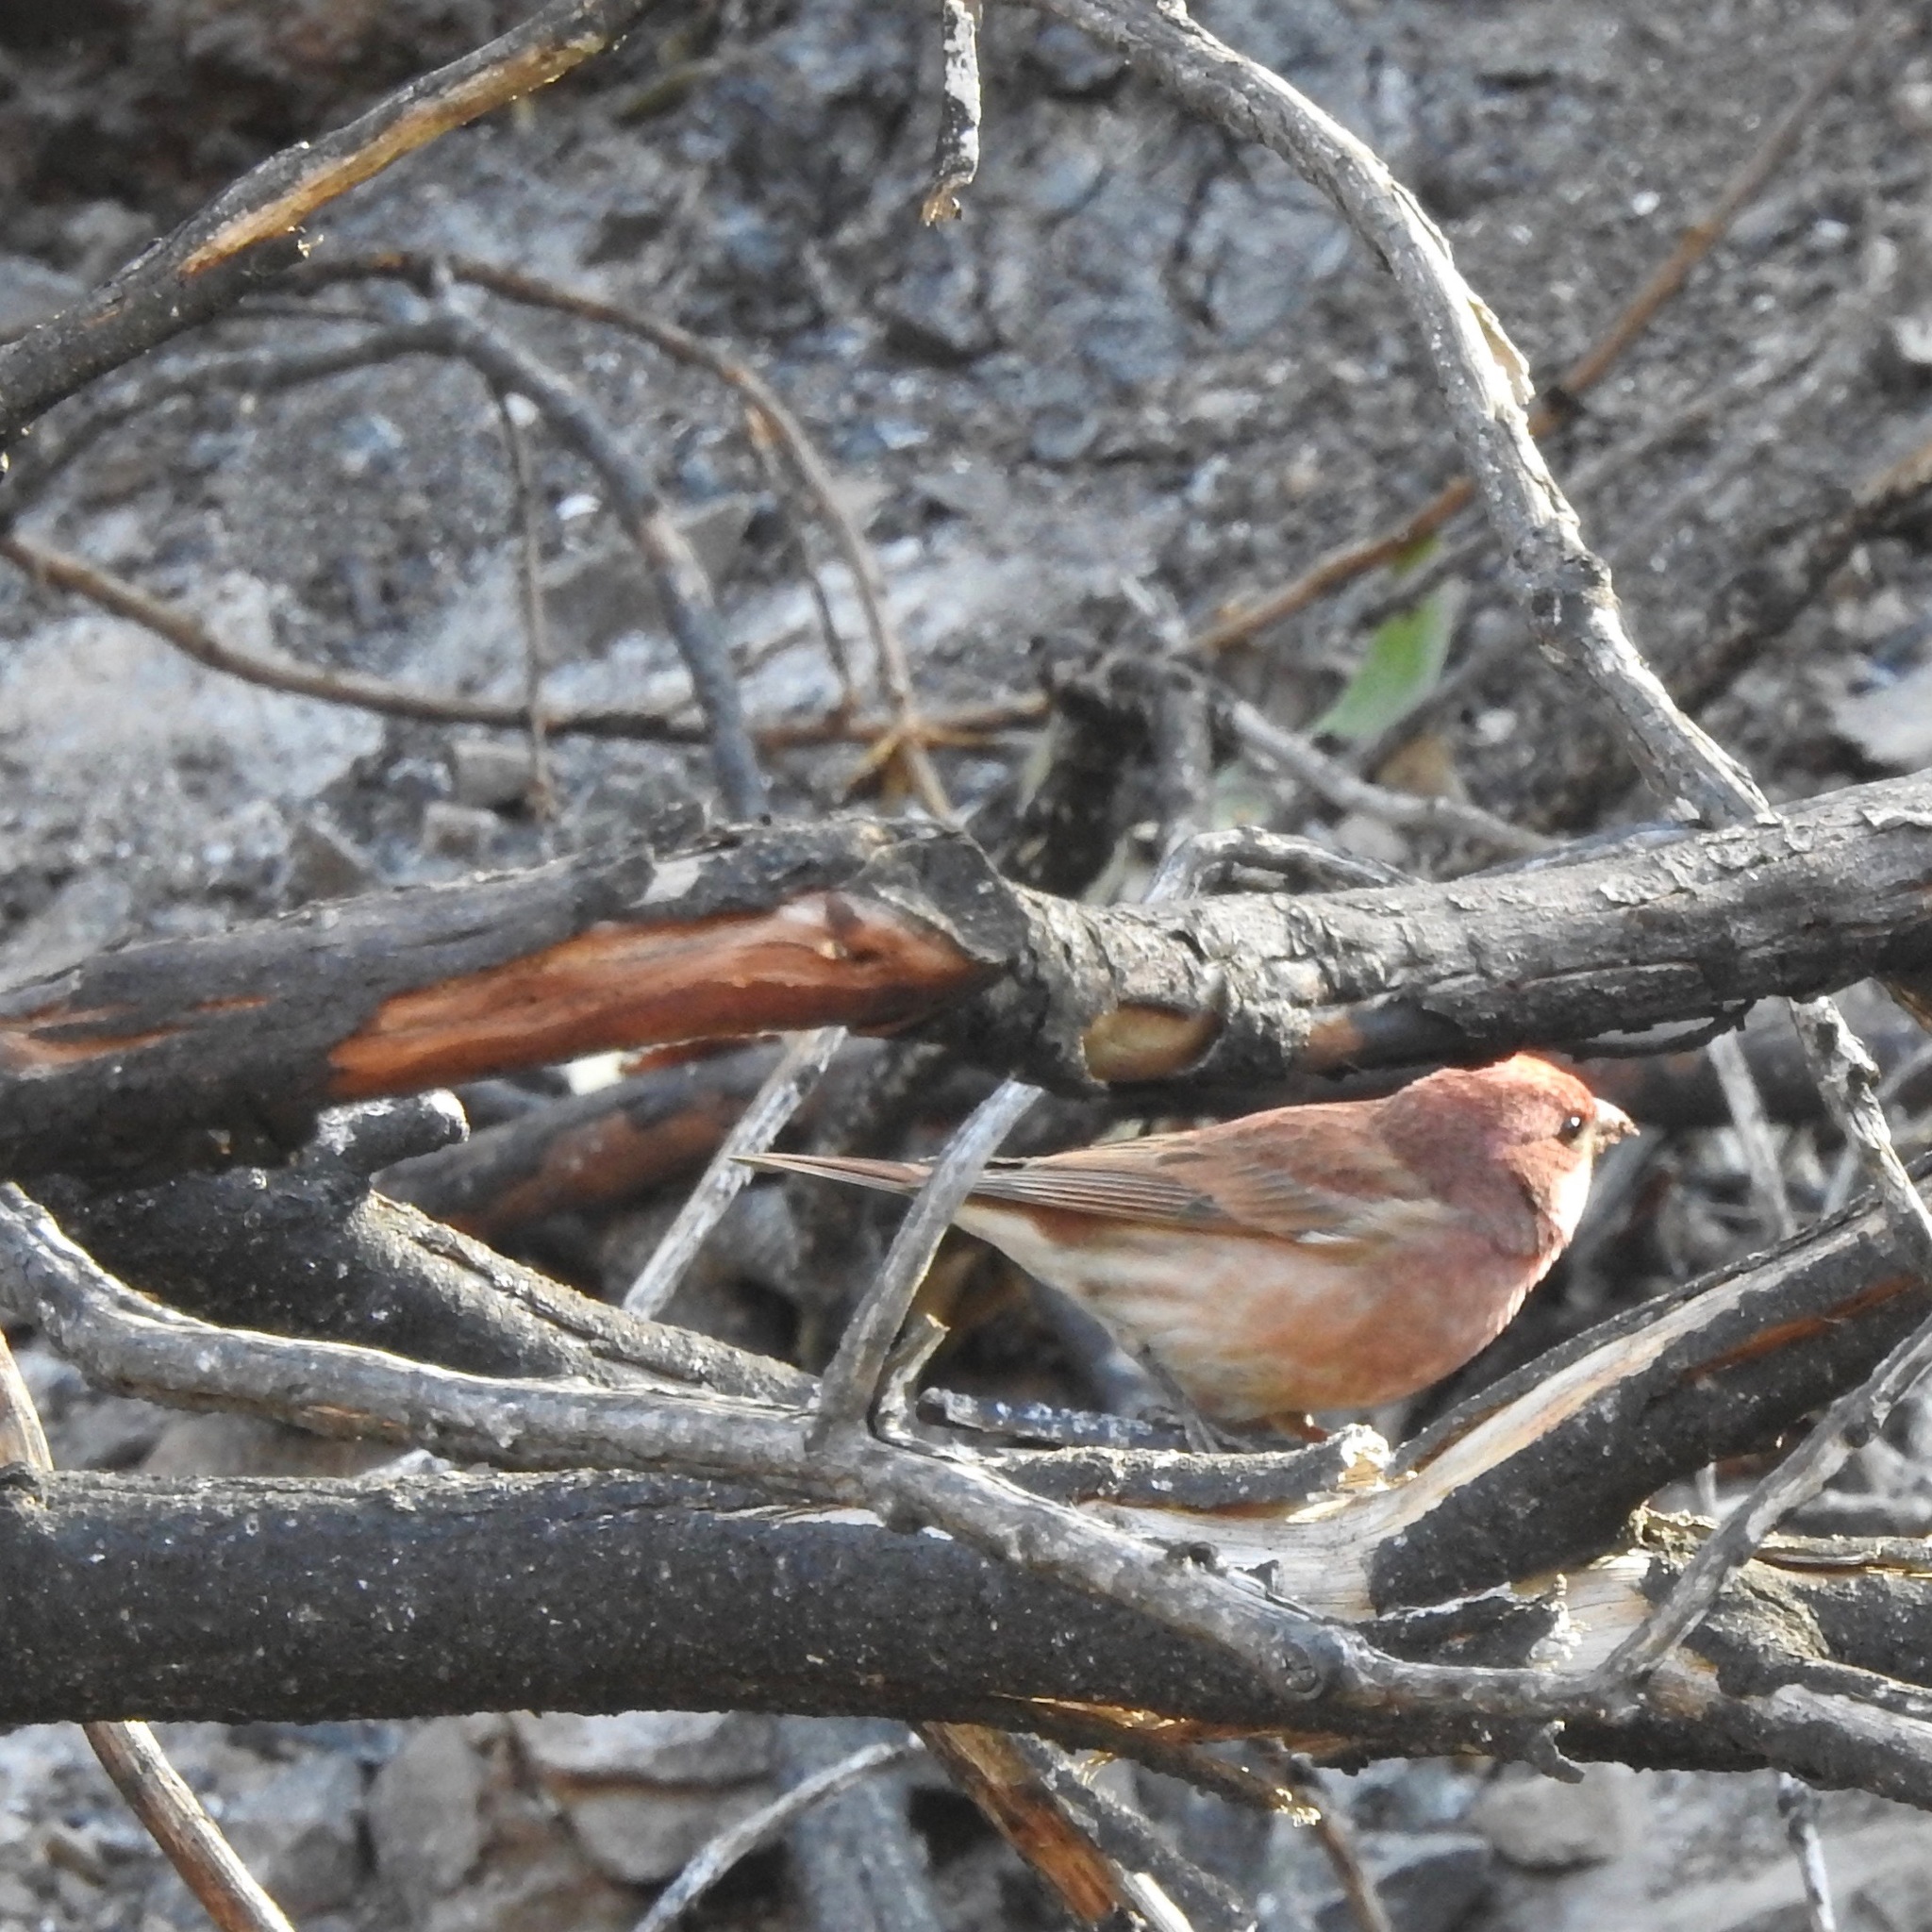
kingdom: Animalia
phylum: Chordata
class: Aves
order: Passeriformes
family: Fringillidae
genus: Haemorhous
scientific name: Haemorhous purpureus
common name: Purple finch
